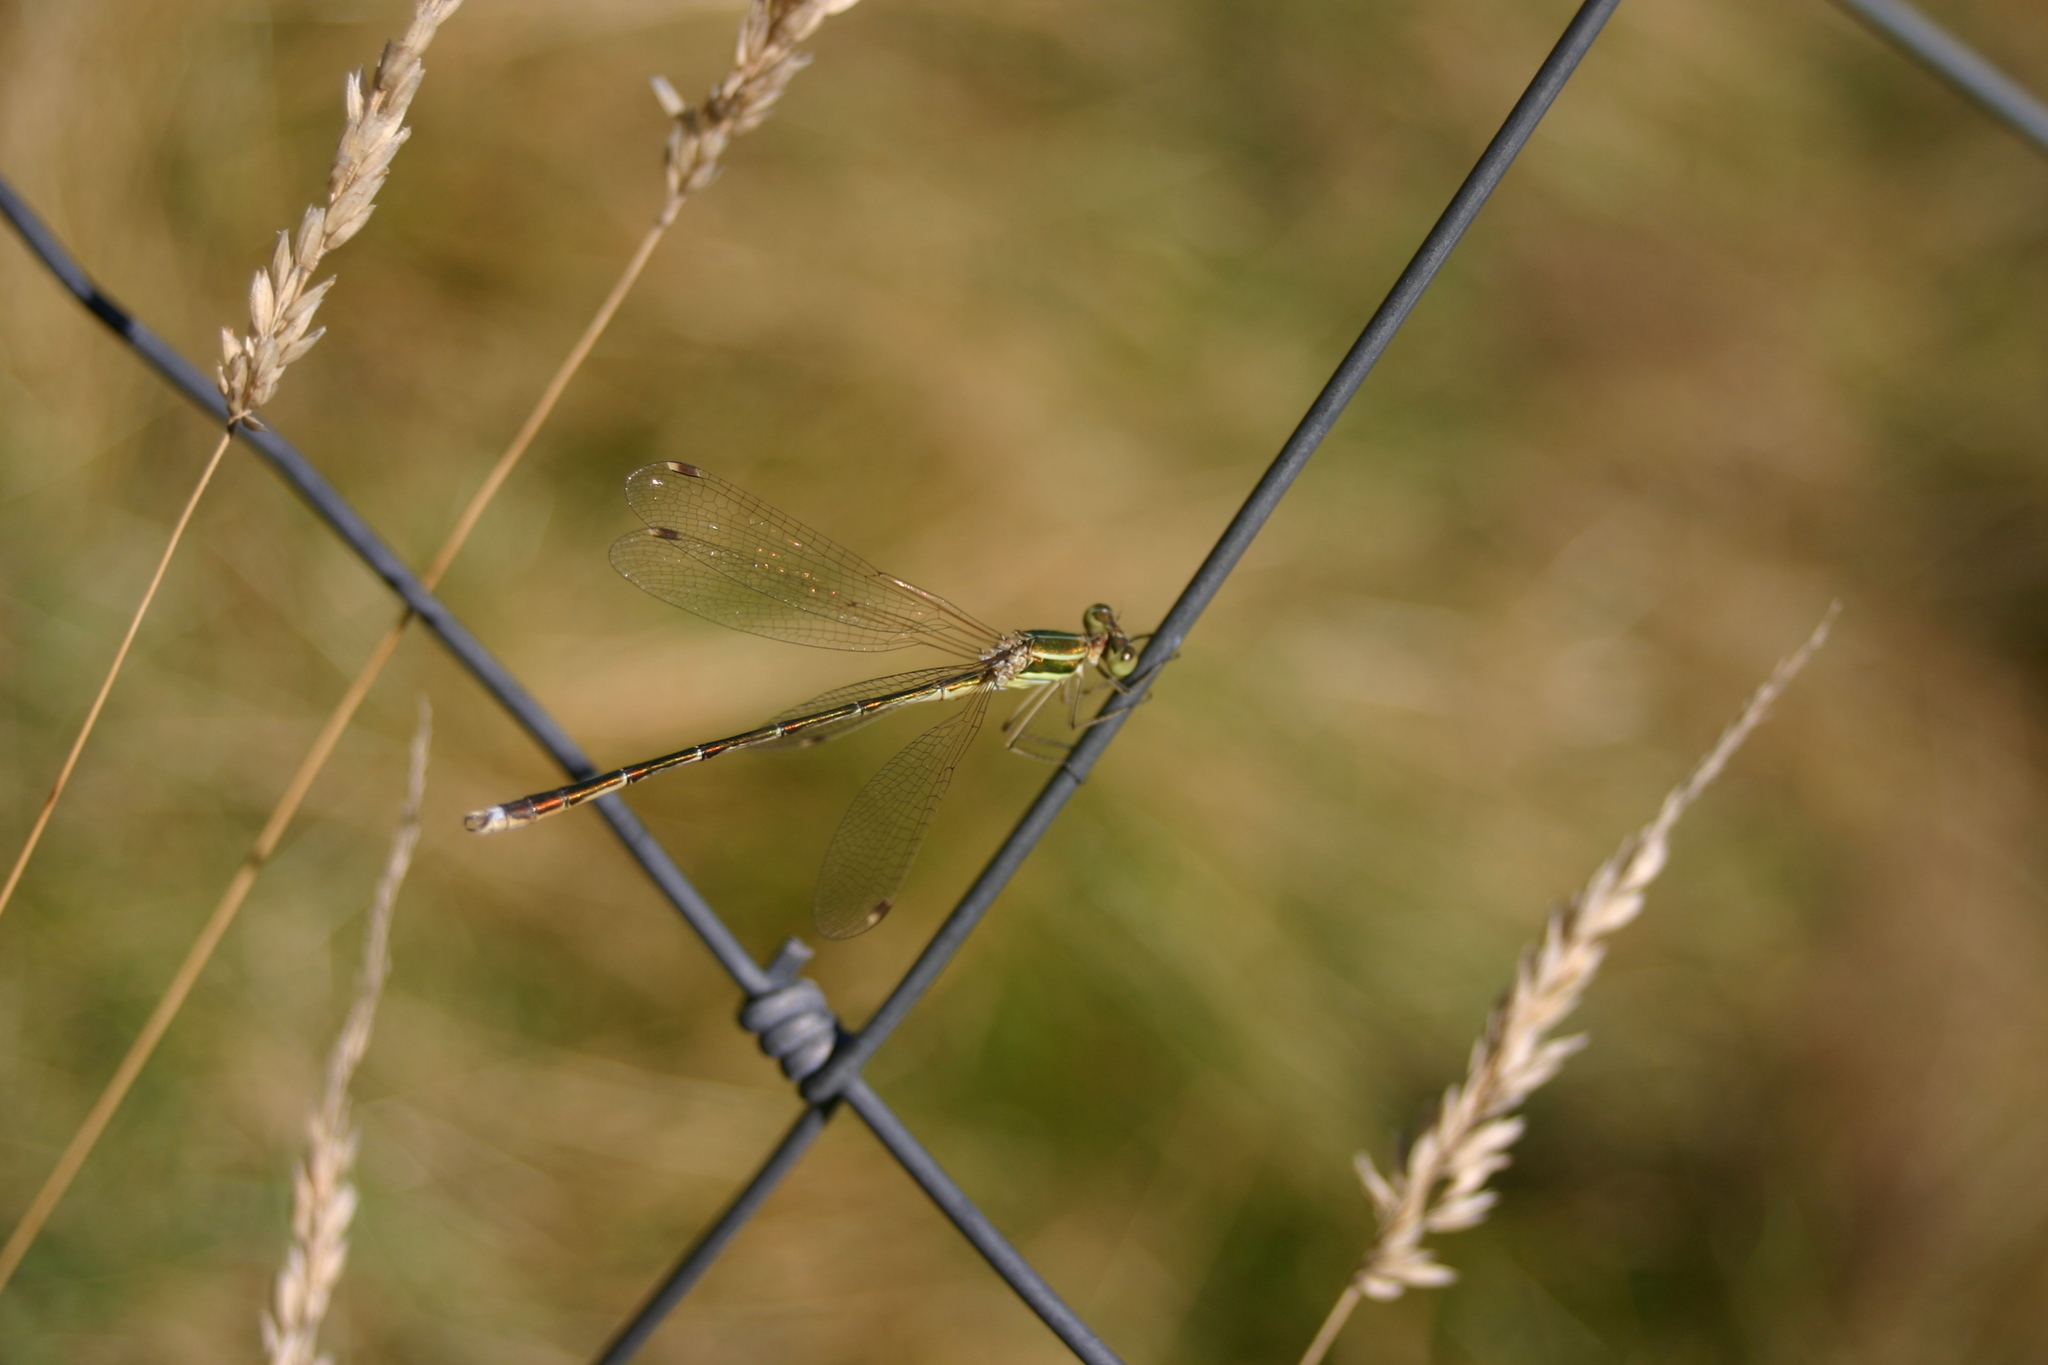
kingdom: Animalia
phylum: Arthropoda
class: Insecta
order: Odonata
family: Lestidae
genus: Lestes
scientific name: Lestes barbarus
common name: Migrant spreadwing
